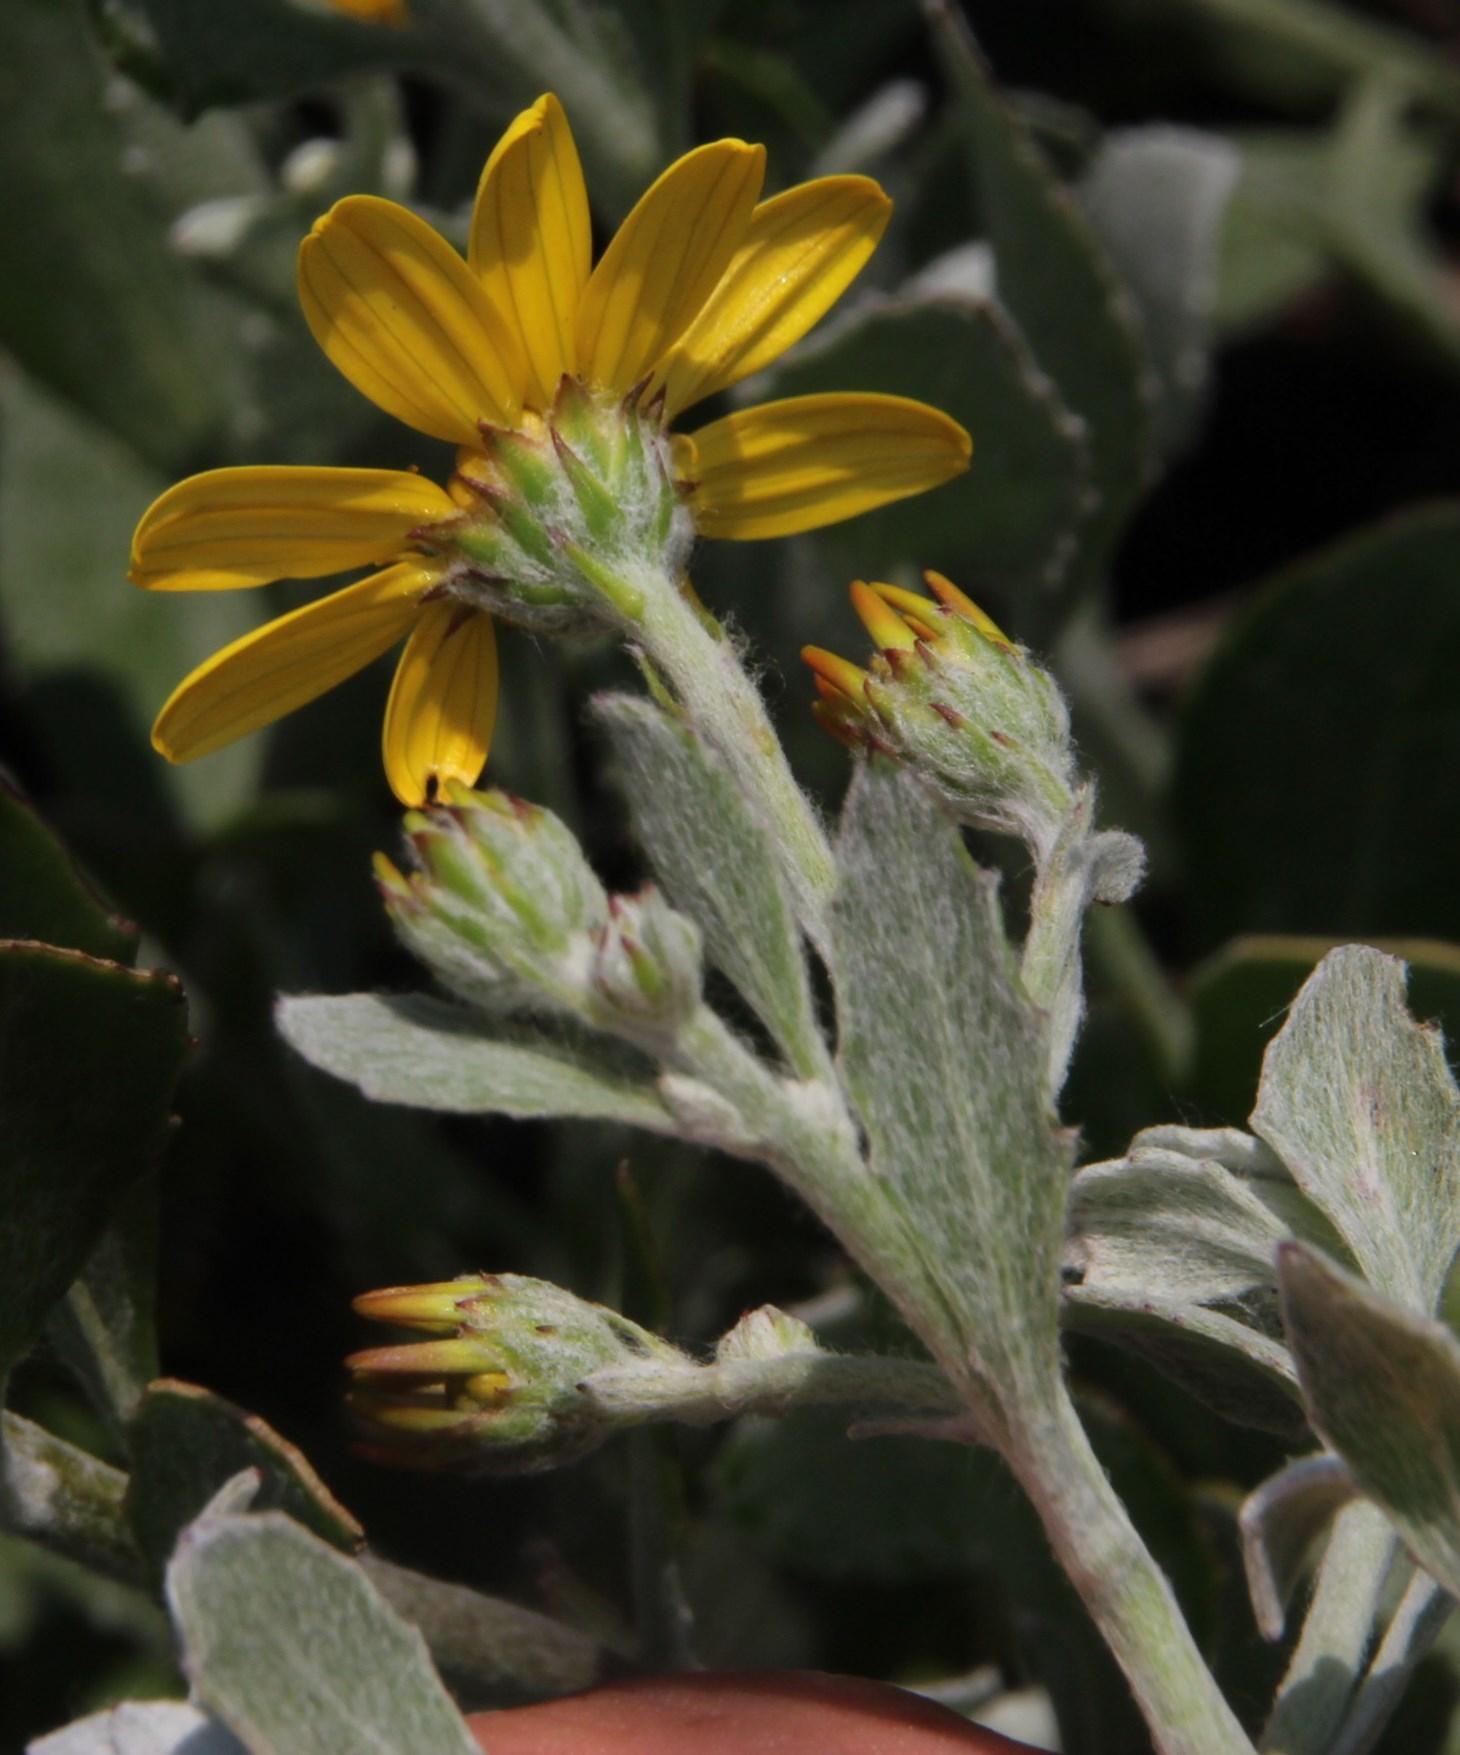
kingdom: Plantae
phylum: Tracheophyta
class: Magnoliopsida
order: Asterales
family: Asteraceae
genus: Osteospermum
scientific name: Osteospermum incanum
